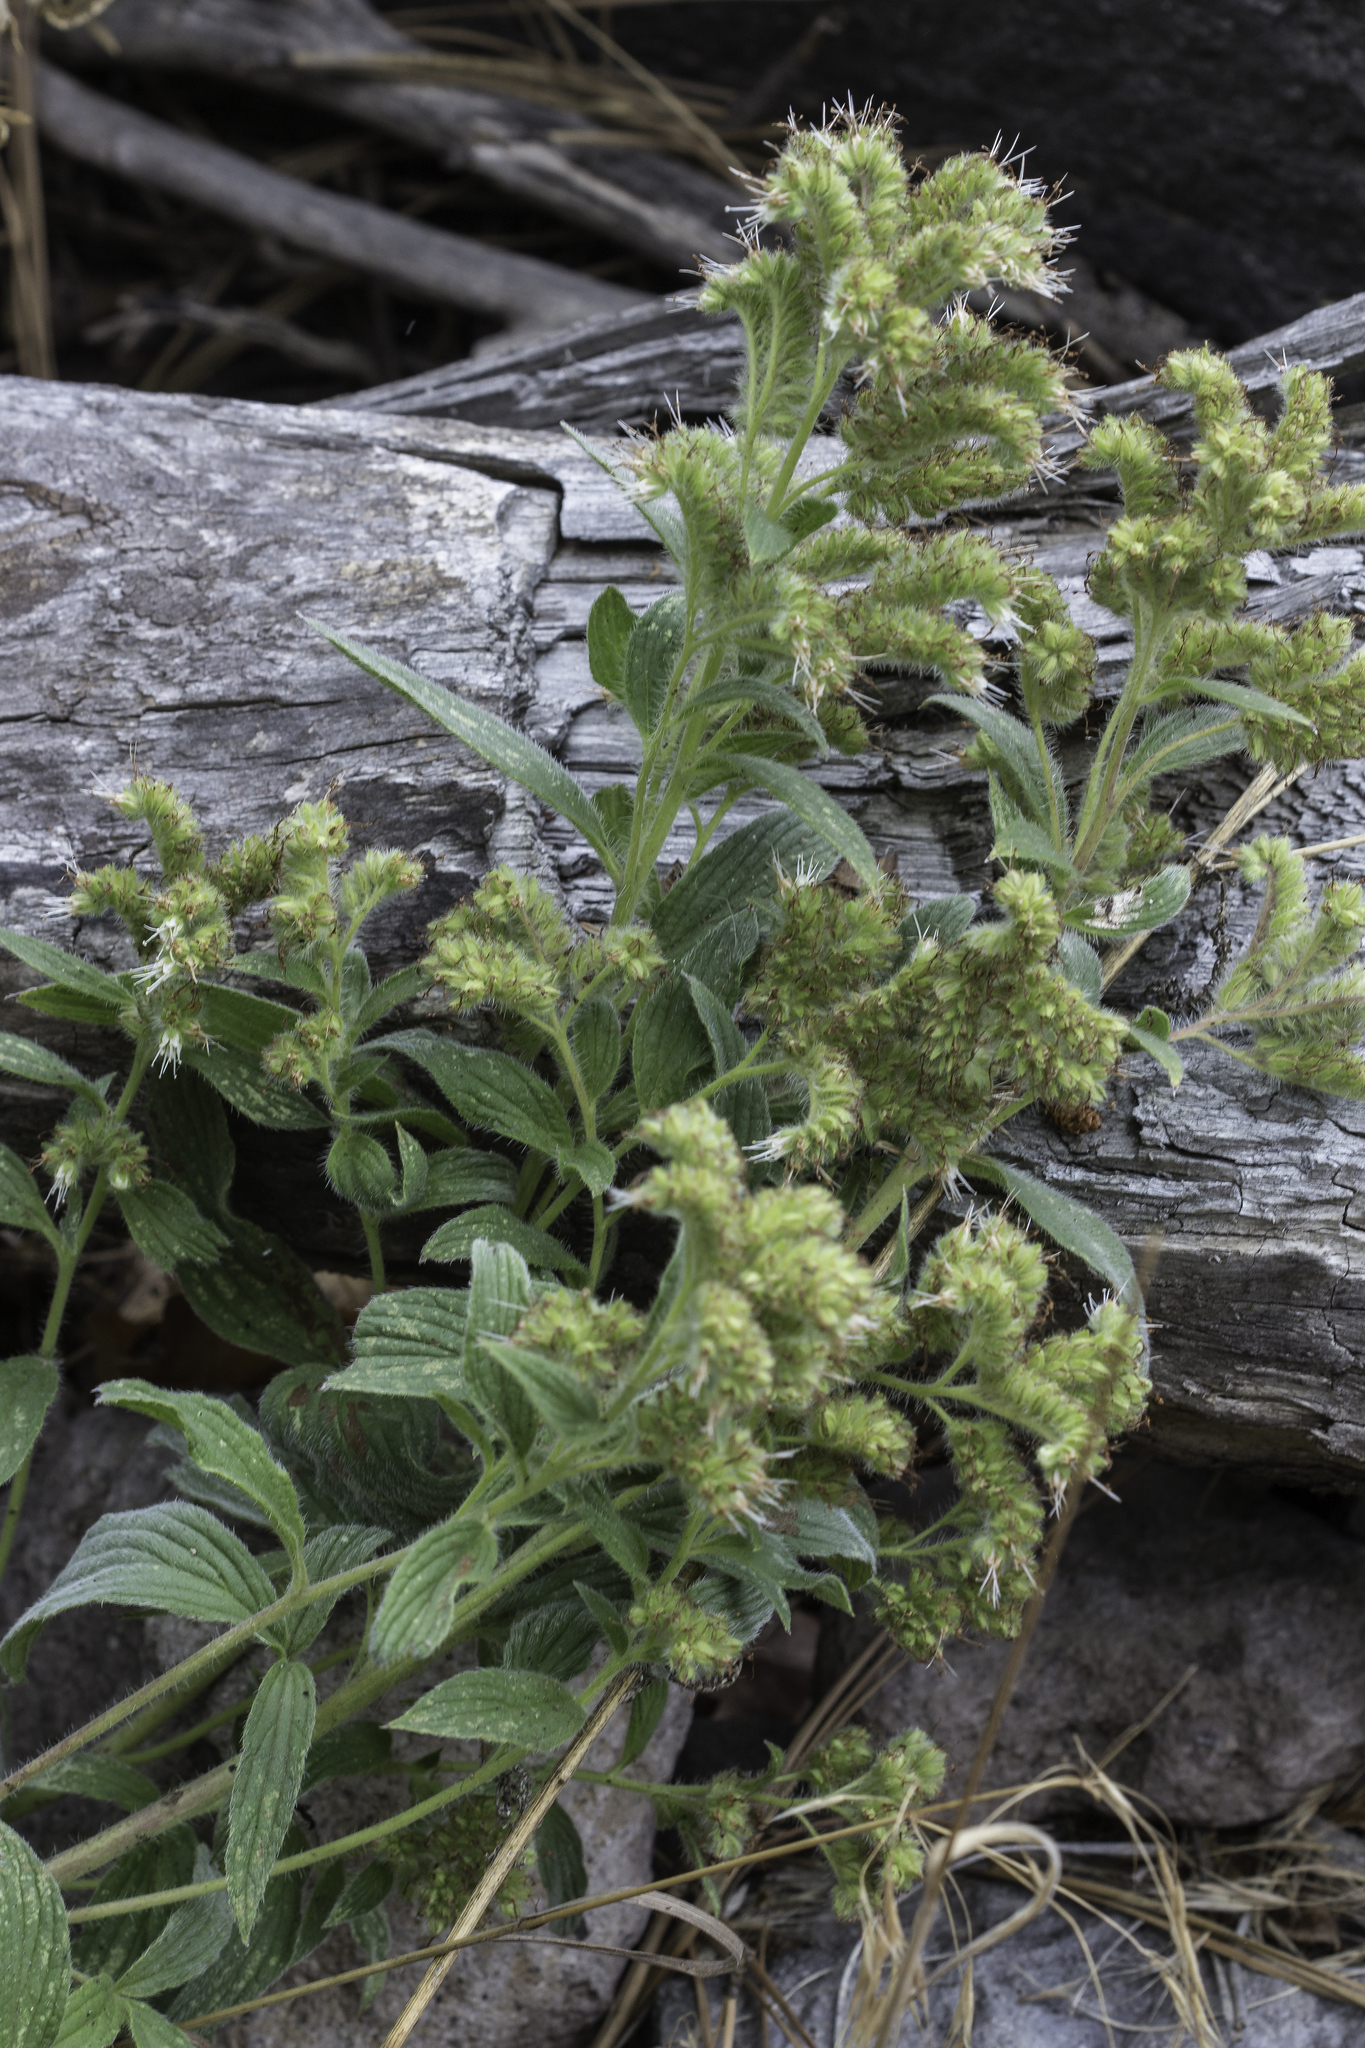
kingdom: Plantae
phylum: Tracheophyta
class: Magnoliopsida
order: Boraginales
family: Hydrophyllaceae
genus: Phacelia
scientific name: Phacelia heterophylla
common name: Variable-leaved phacelia
